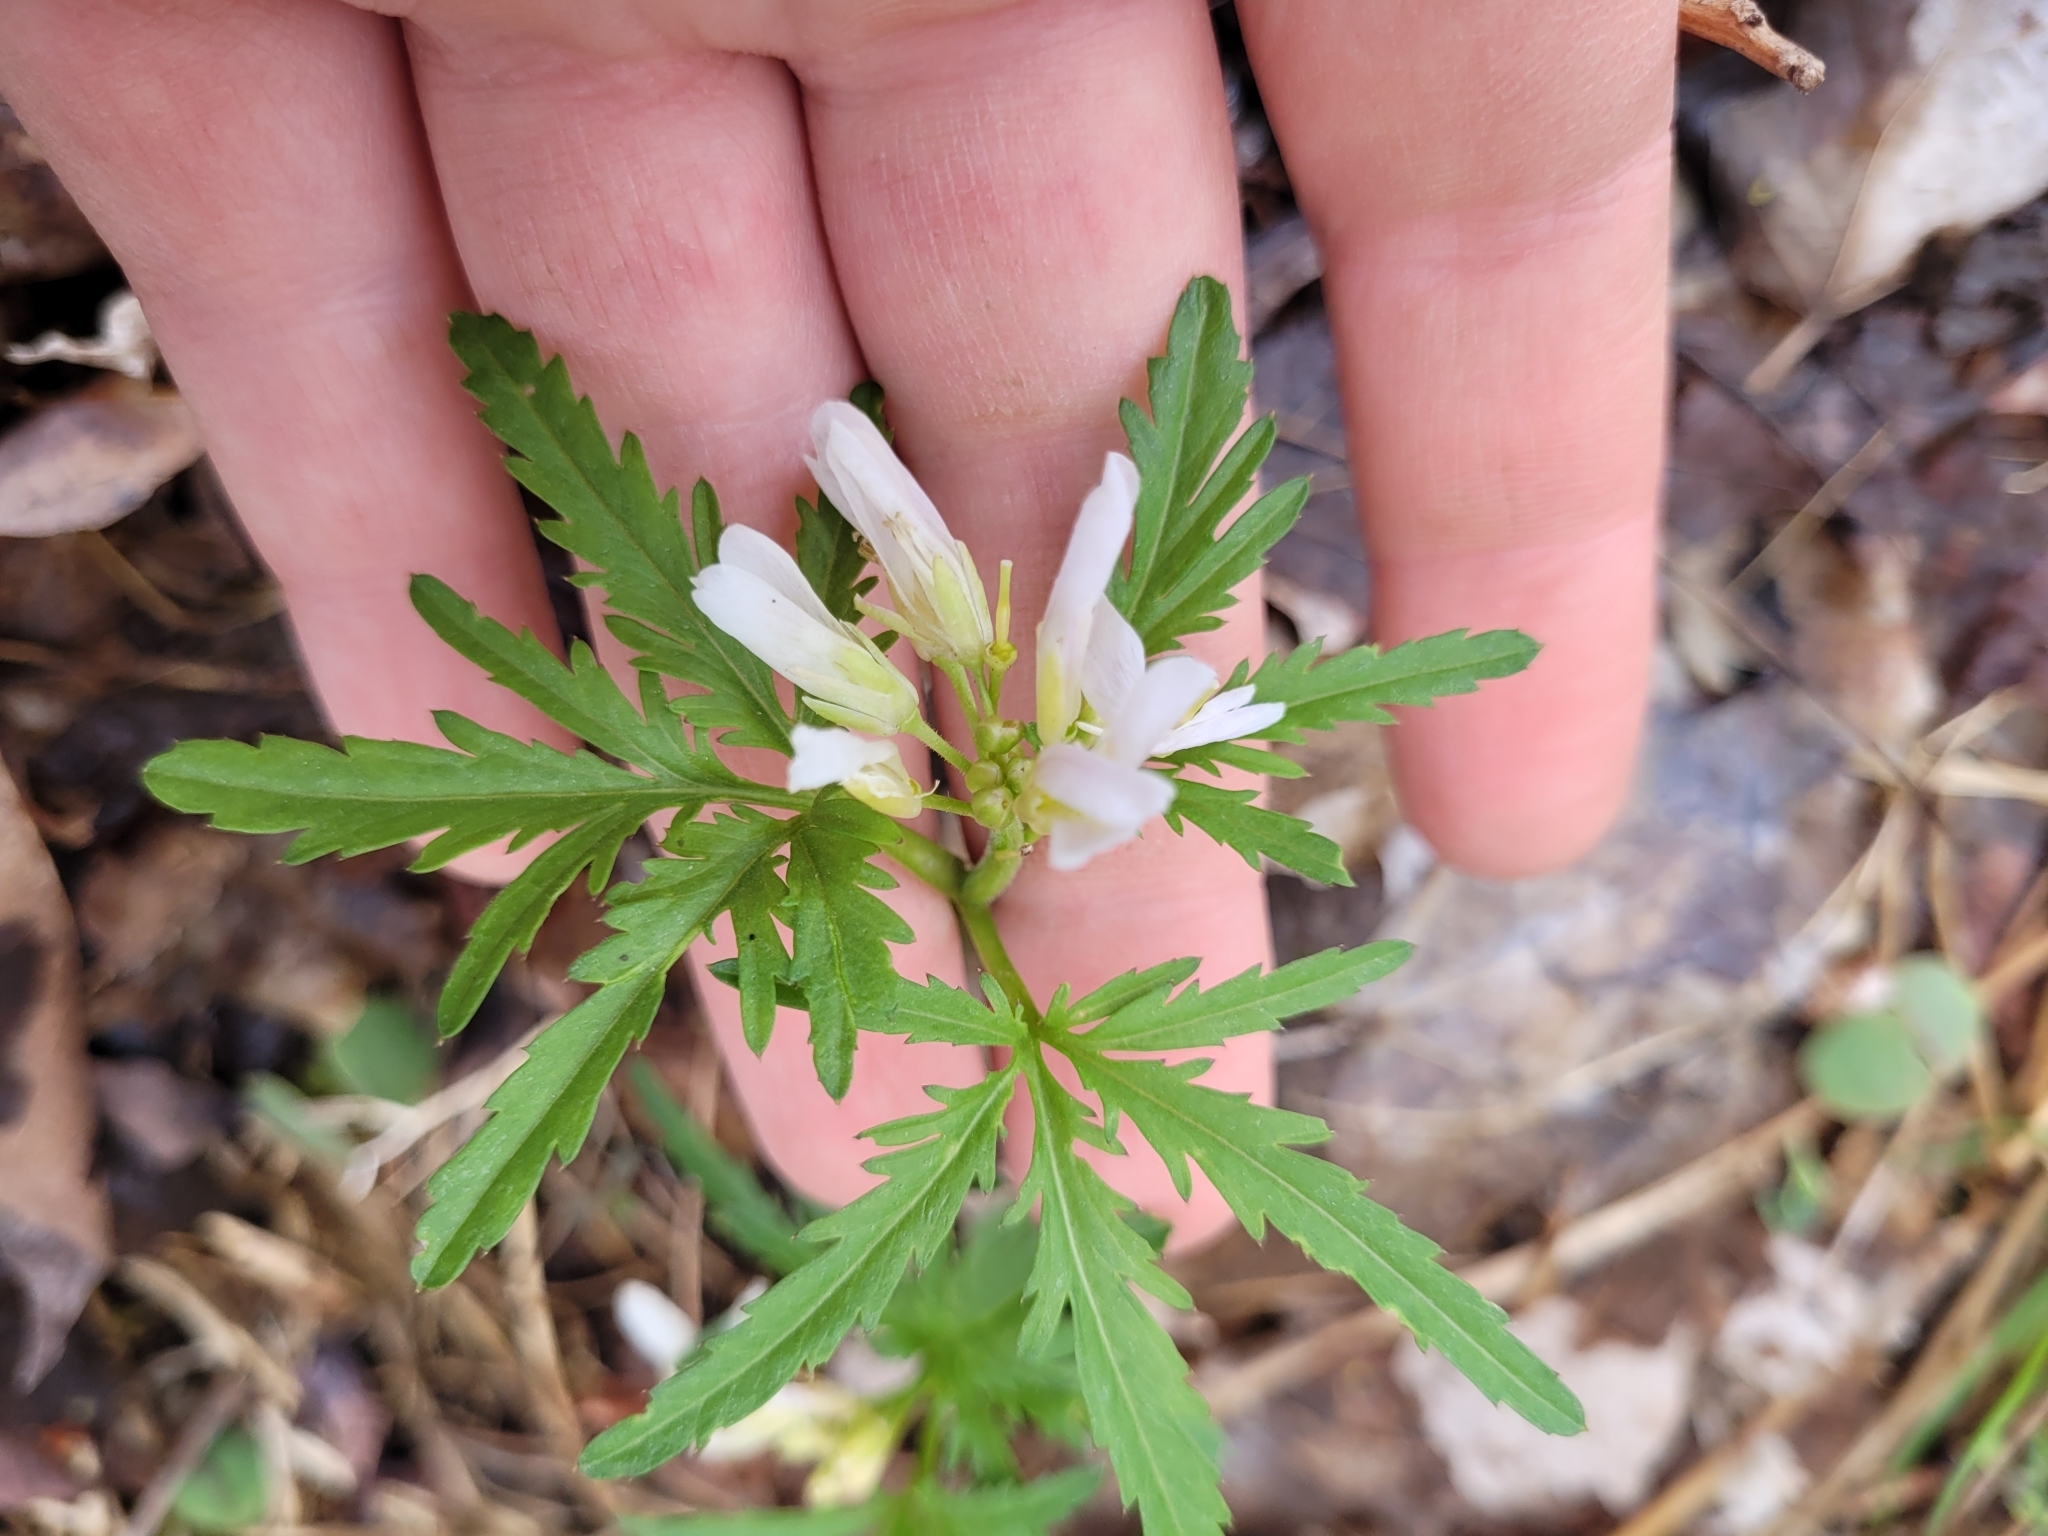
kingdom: Plantae
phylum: Tracheophyta
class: Magnoliopsida
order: Brassicales
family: Brassicaceae
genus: Cardamine
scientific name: Cardamine concatenata
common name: Cut-leaf toothcup
